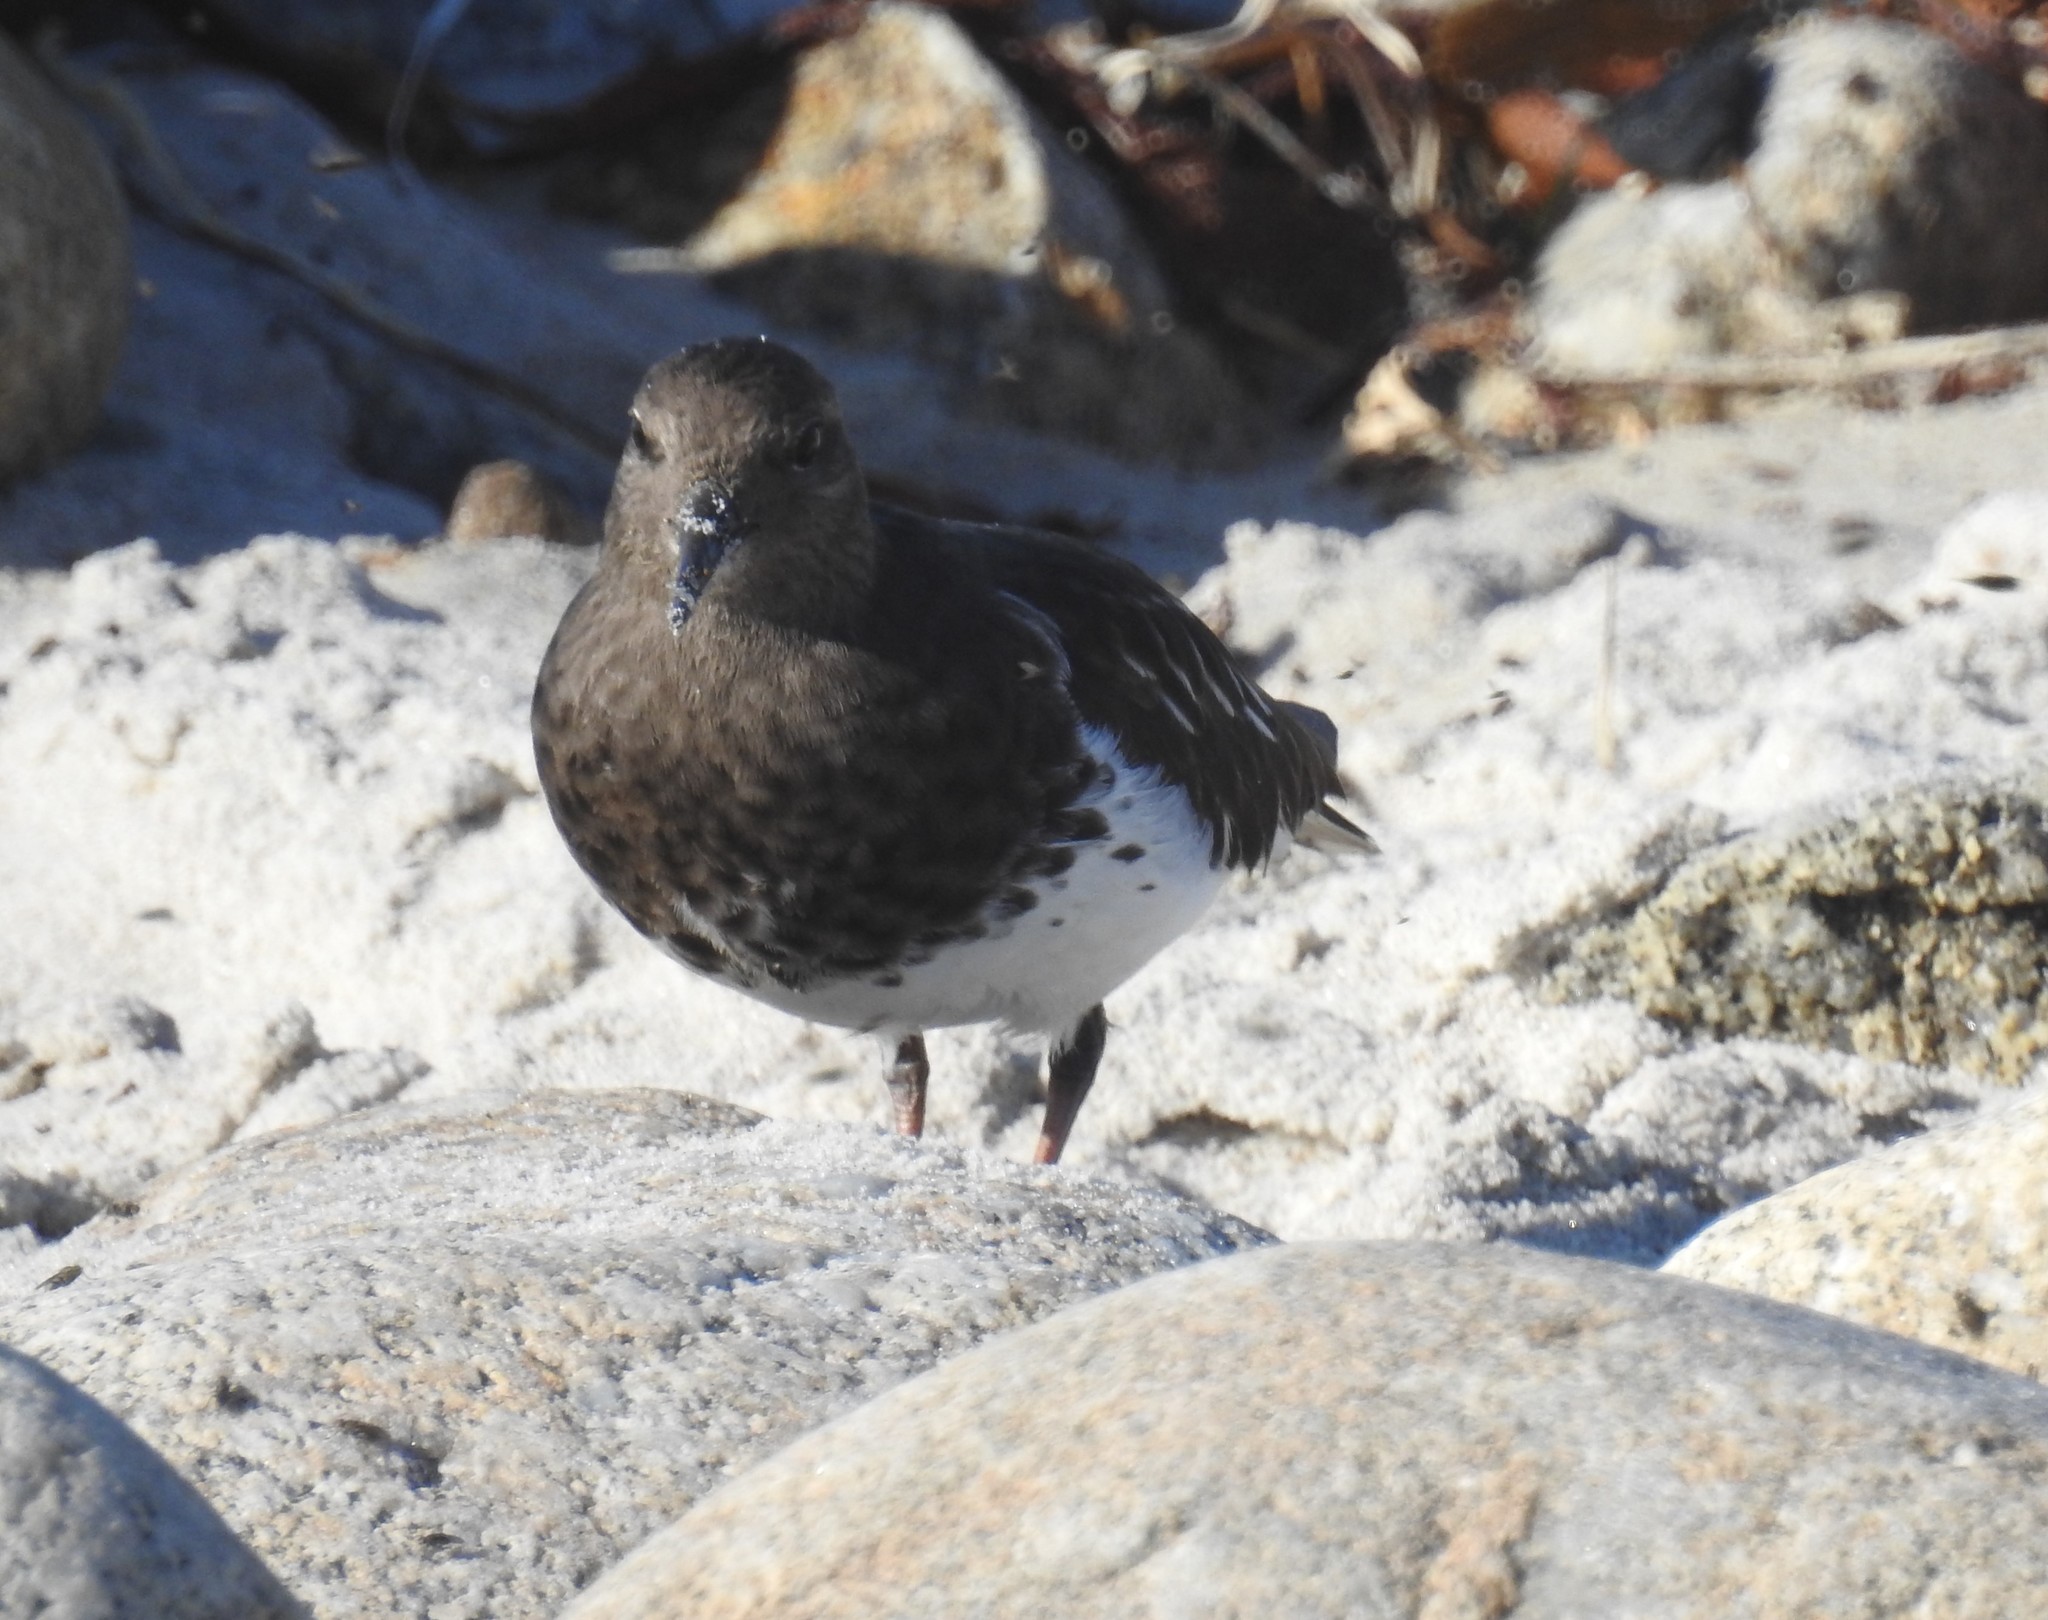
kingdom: Animalia
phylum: Chordata
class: Aves
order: Charadriiformes
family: Scolopacidae
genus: Arenaria
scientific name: Arenaria melanocephala
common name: Black turnstone
